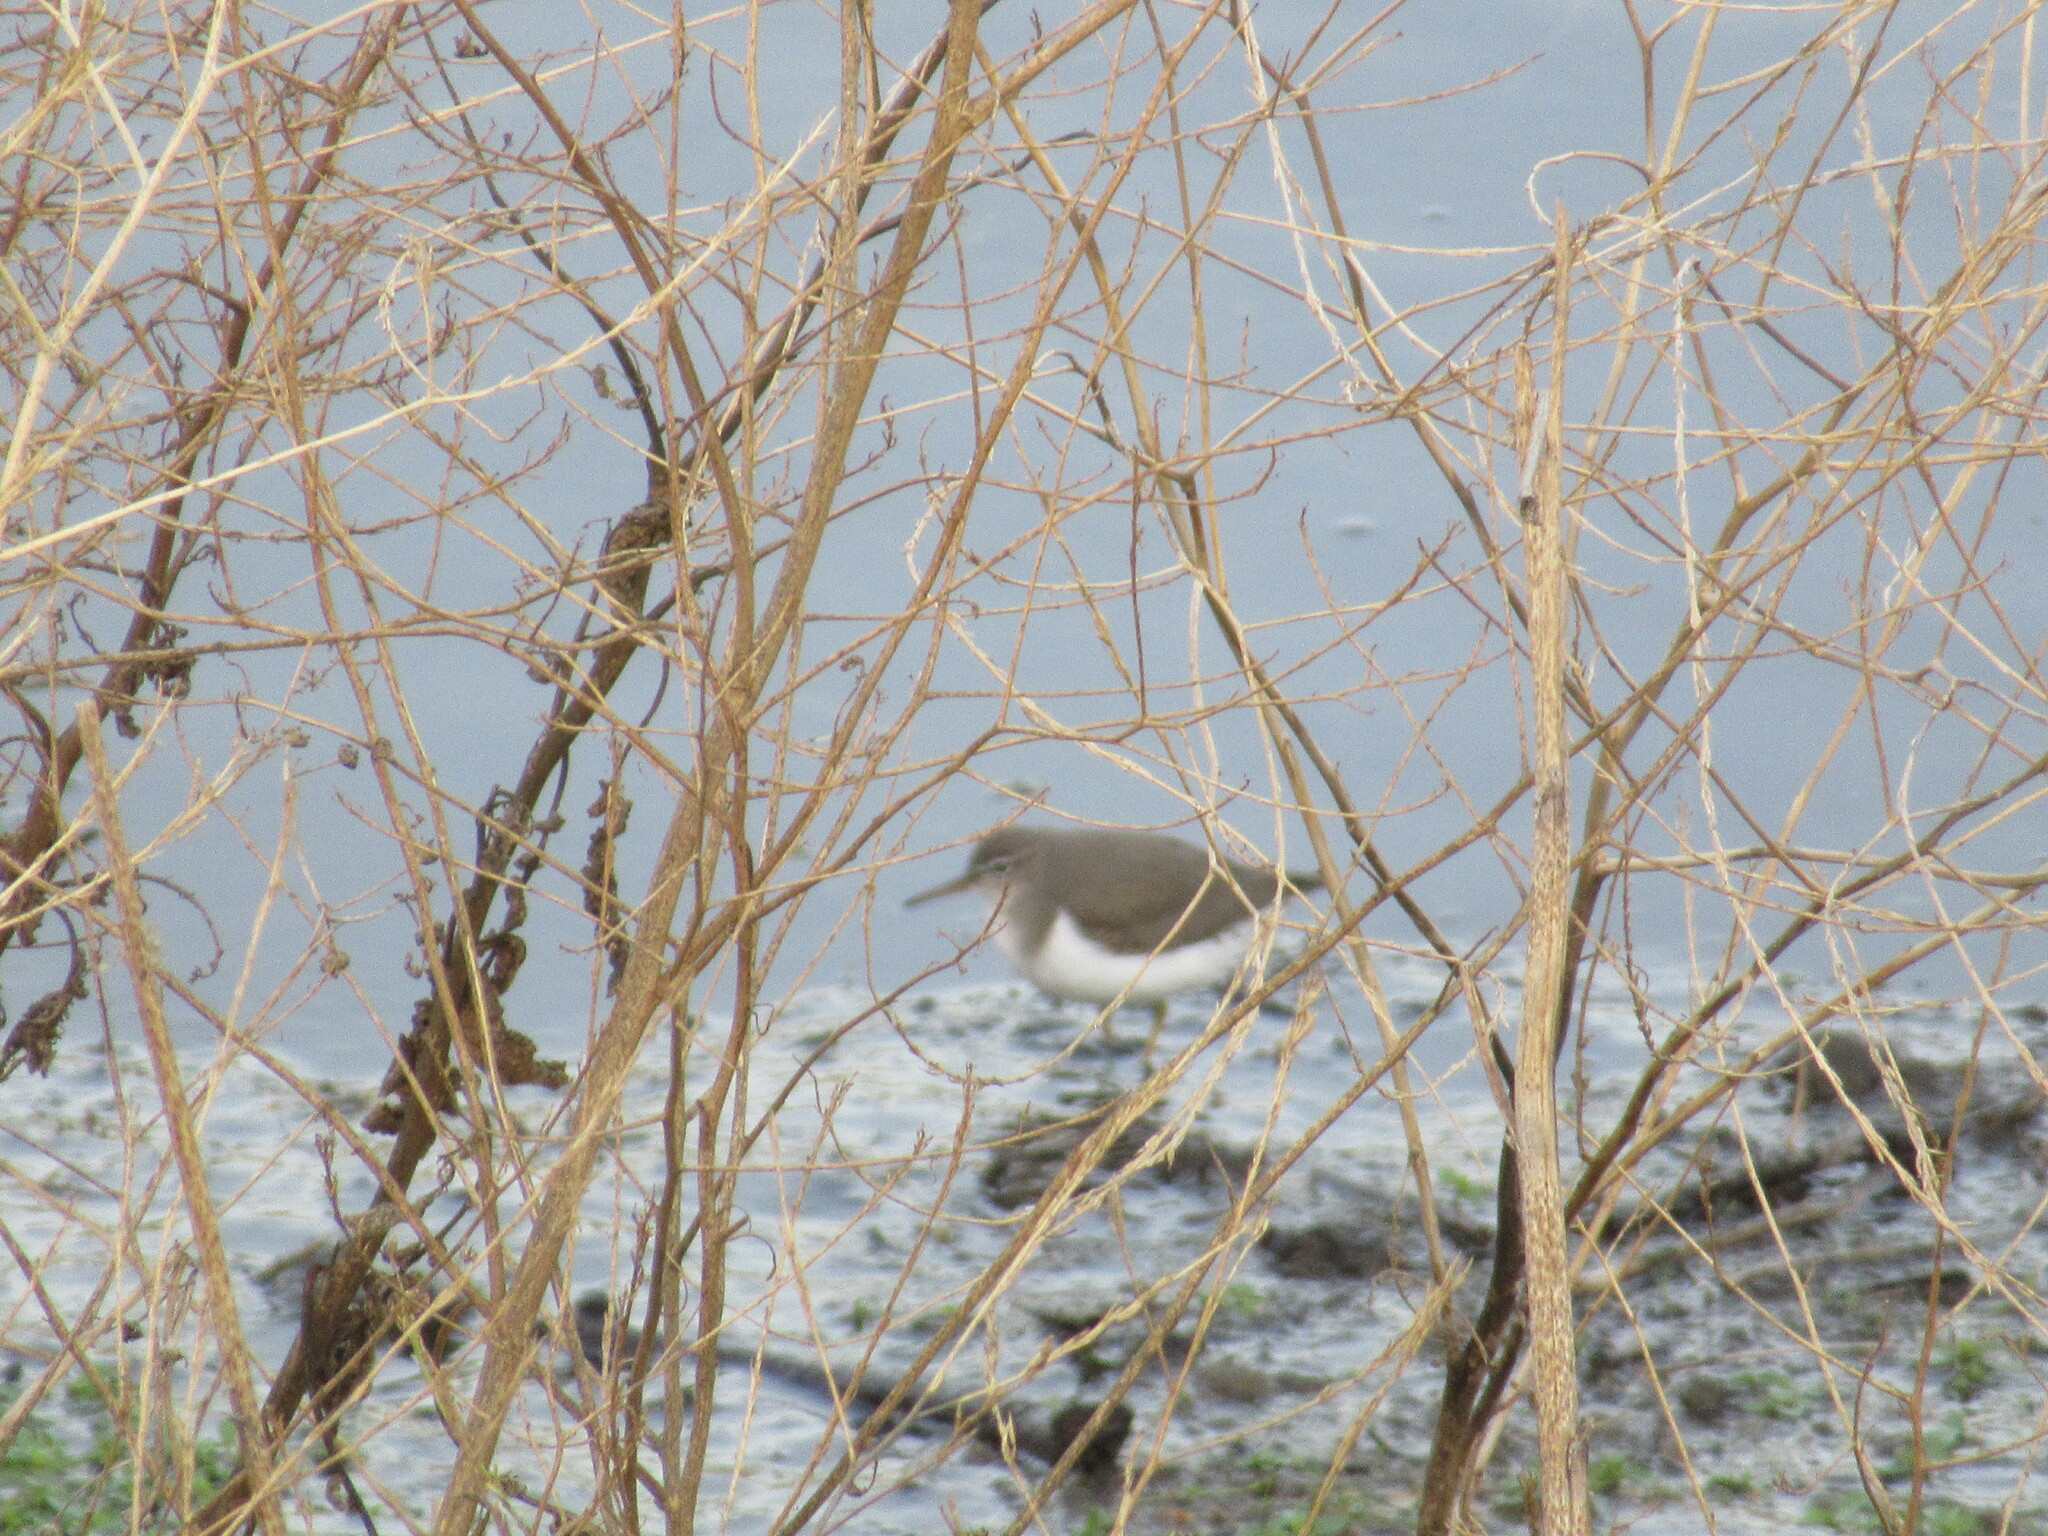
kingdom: Animalia
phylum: Chordata
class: Aves
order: Charadriiformes
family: Scolopacidae
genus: Actitis
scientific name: Actitis macularius
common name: Spotted sandpiper
